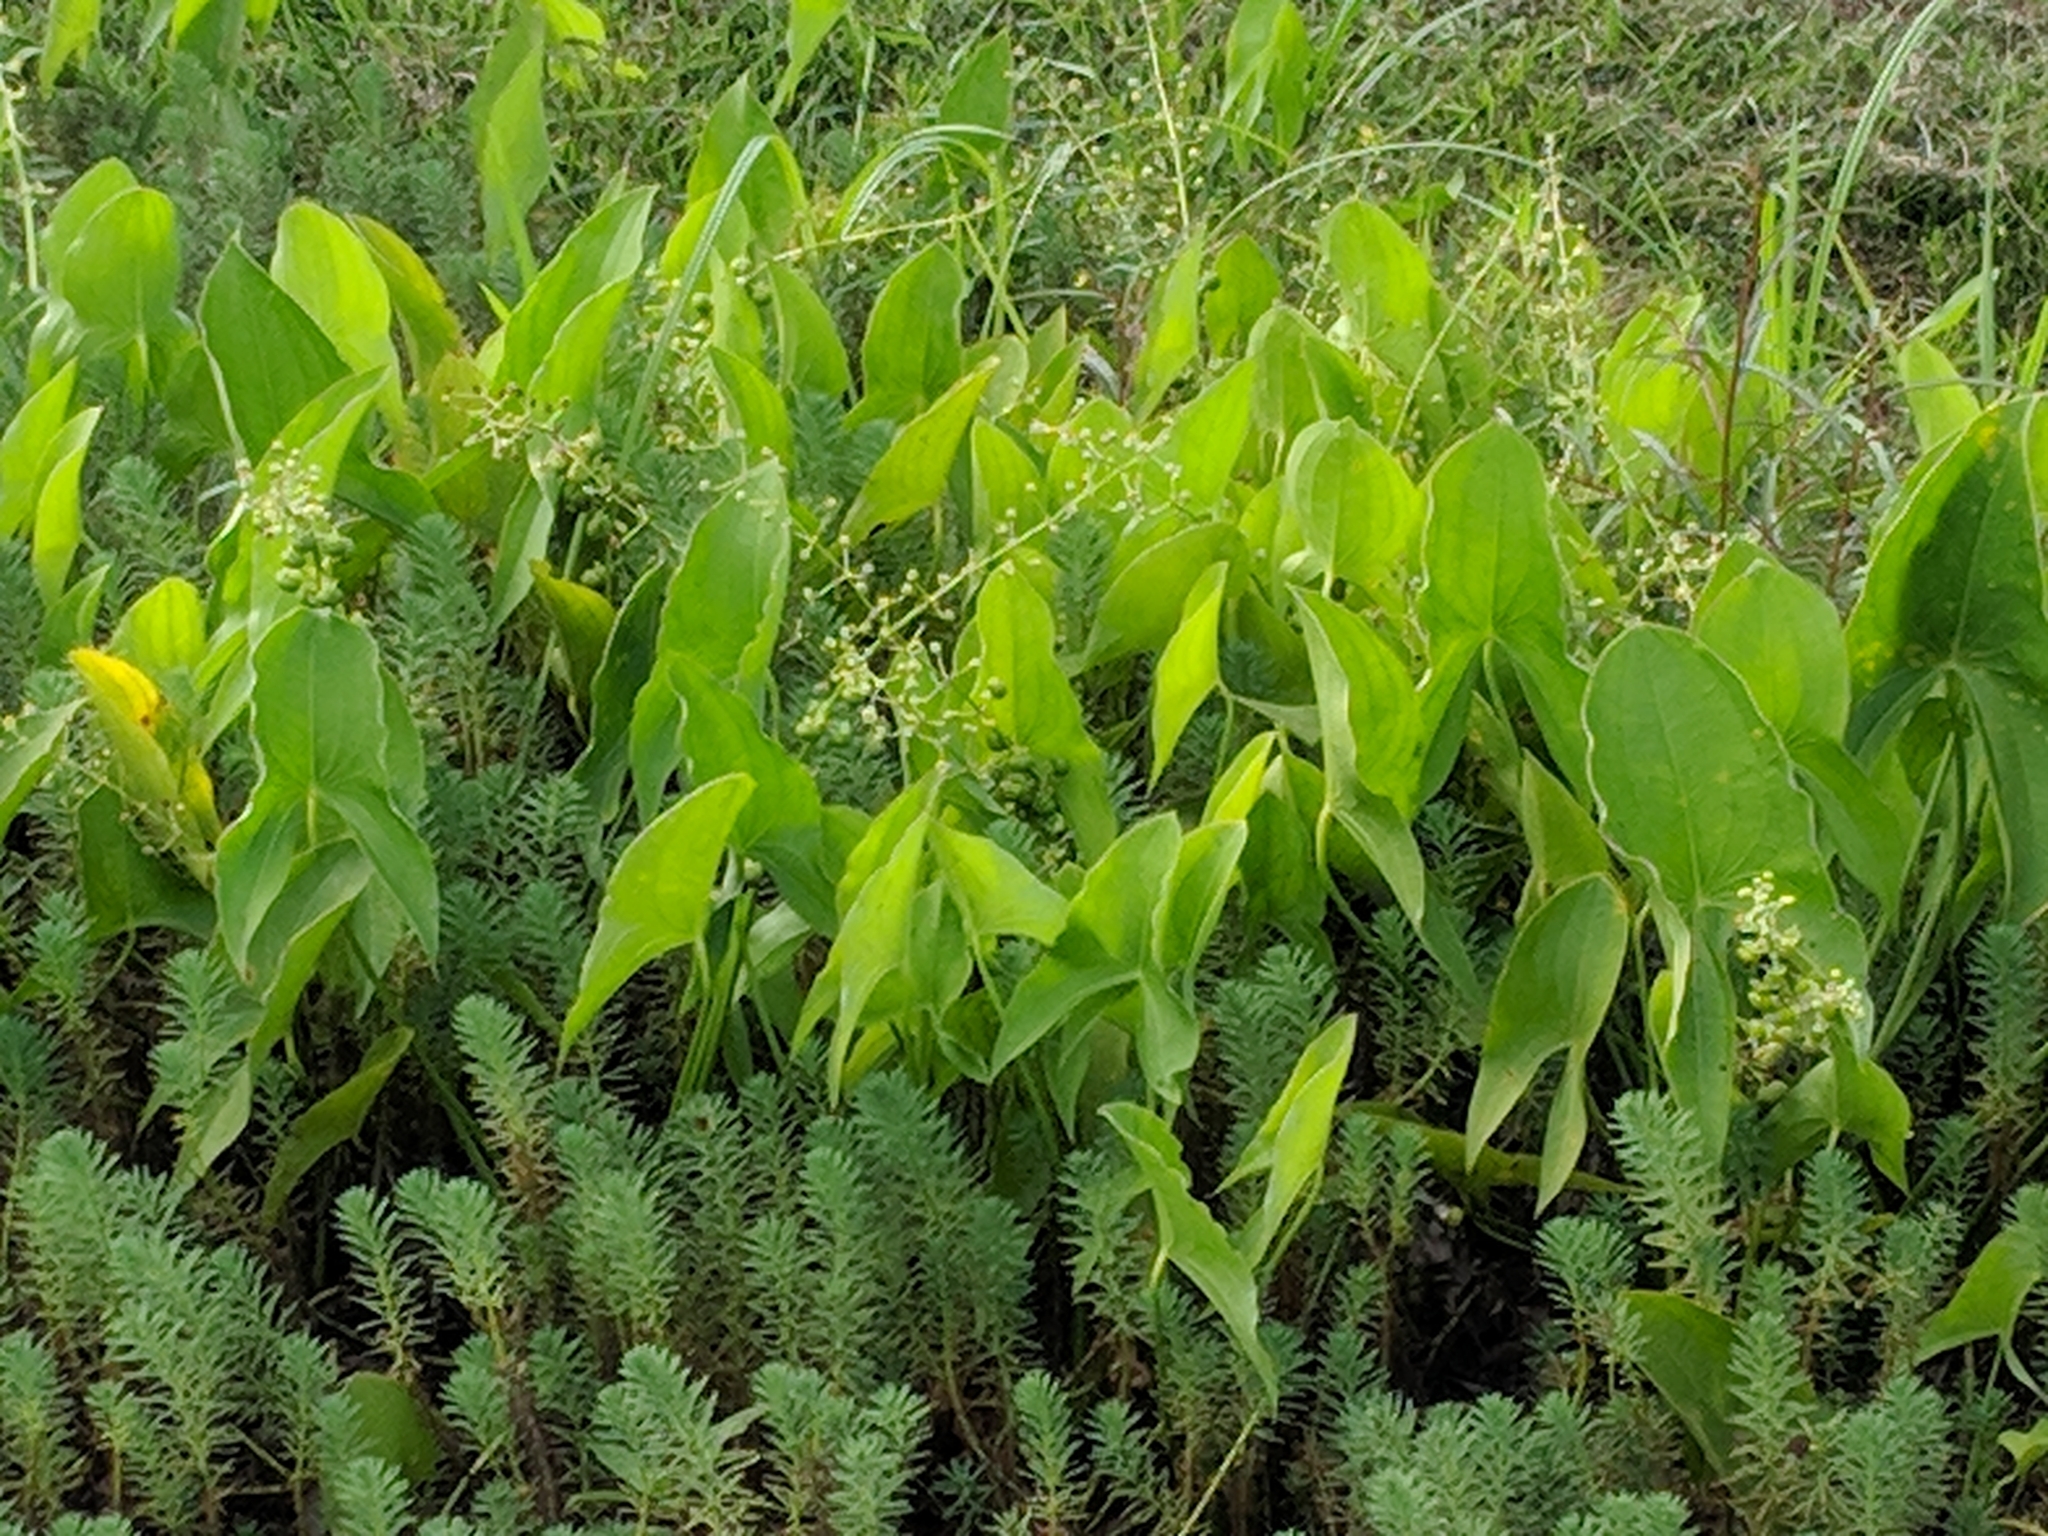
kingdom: Plantae
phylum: Tracheophyta
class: Liliopsida
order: Alismatales
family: Alismataceae
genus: Sagittaria
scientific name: Sagittaria latifolia
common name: Duck-potato
